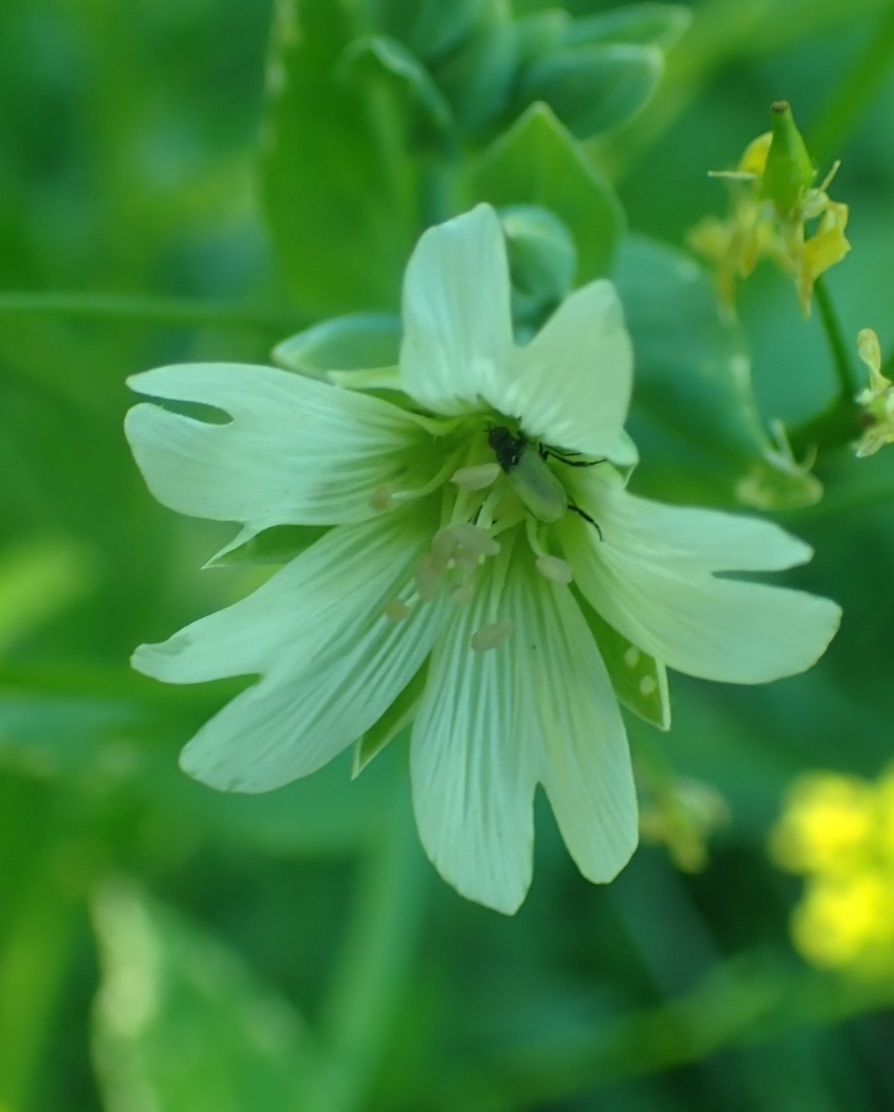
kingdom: Plantae
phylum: Tracheophyta
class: Magnoliopsida
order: Caryophyllales
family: Caryophyllaceae
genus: Cerastium
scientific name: Cerastium davuricum
